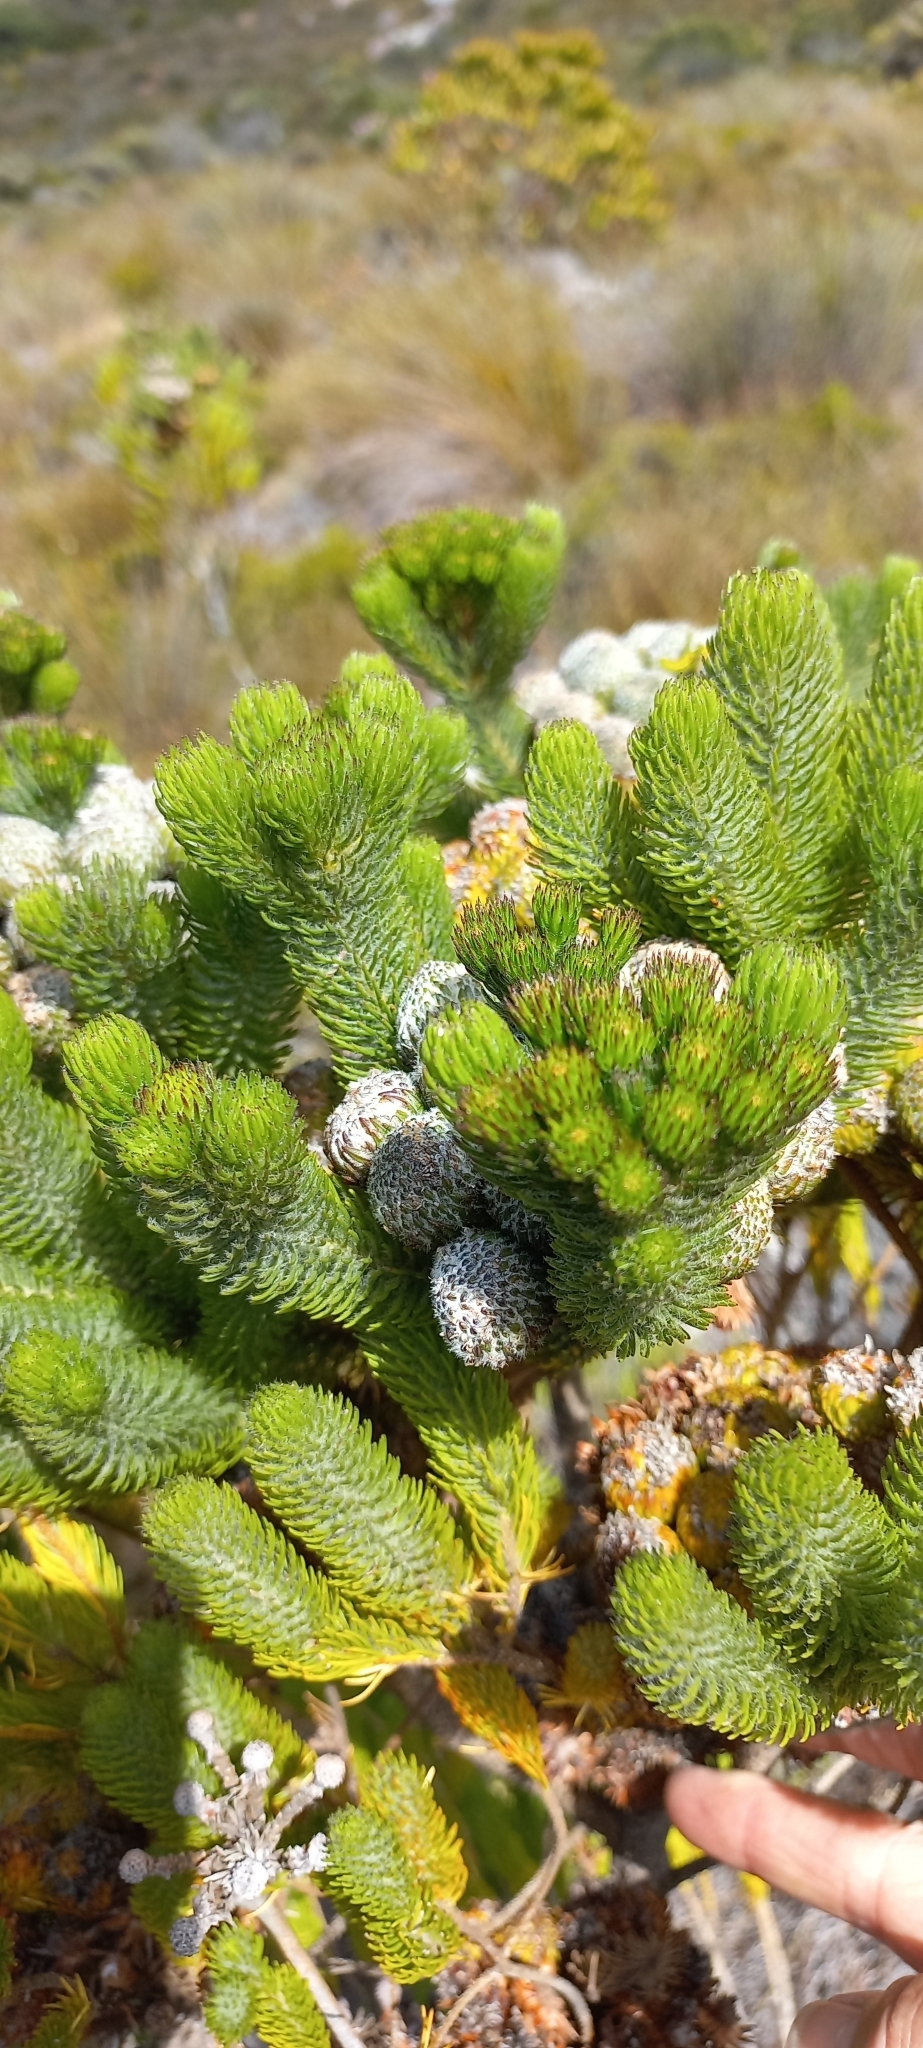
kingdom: Plantae
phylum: Tracheophyta
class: Magnoliopsida
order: Bruniales
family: Bruniaceae
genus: Berzelia
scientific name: Berzelia albiflora
